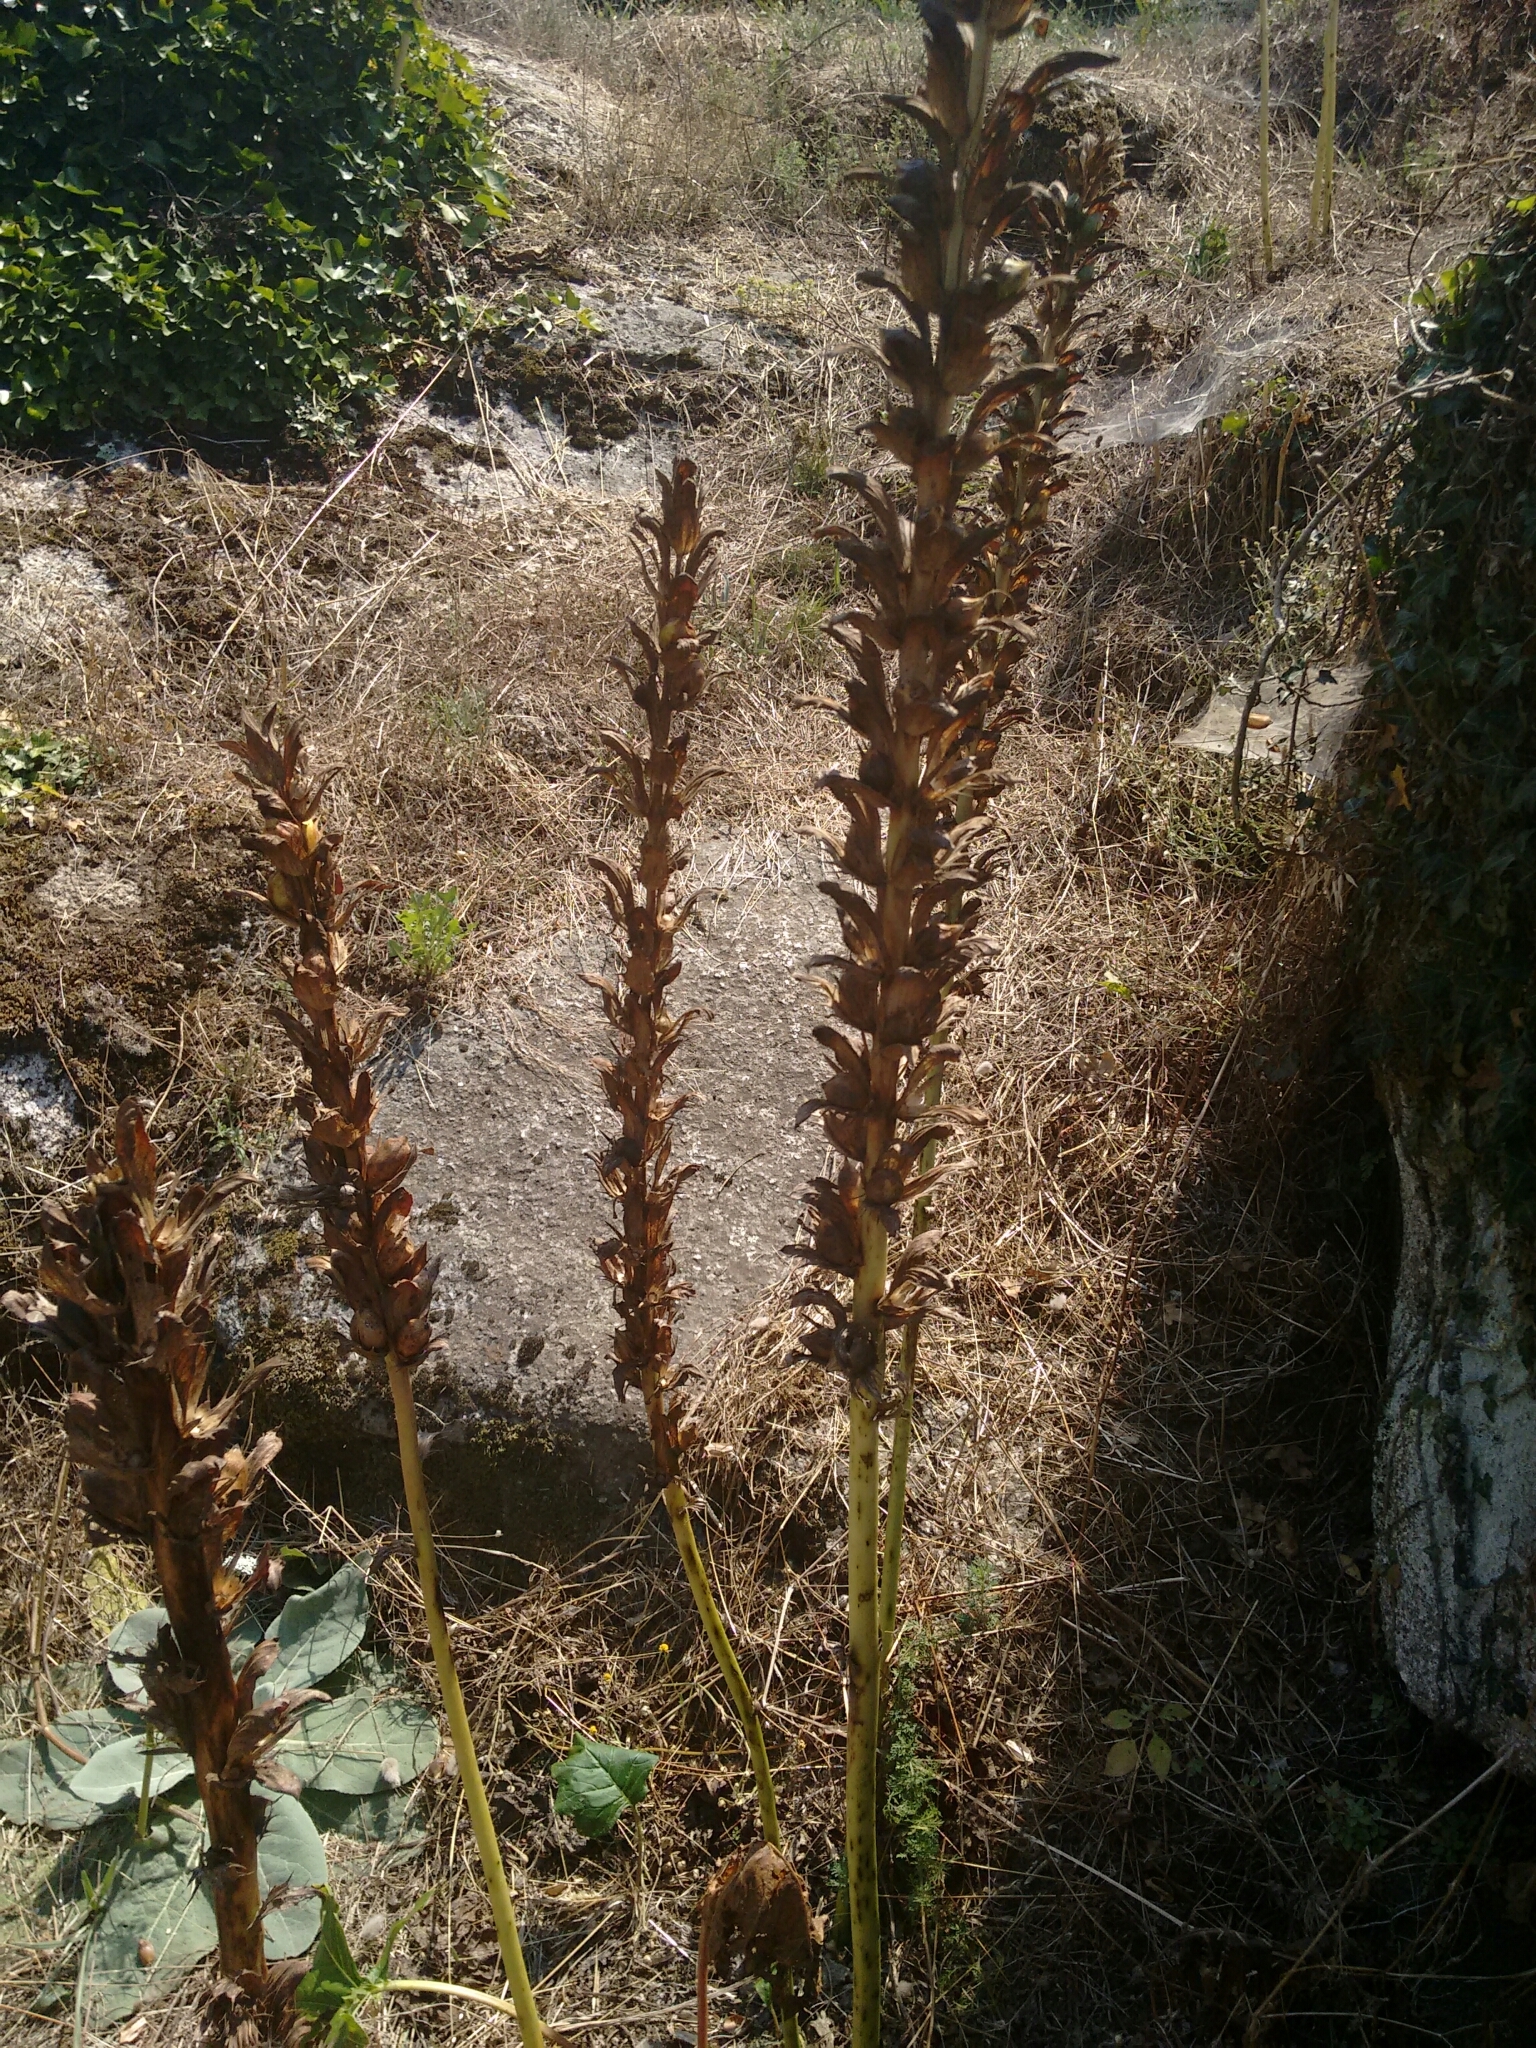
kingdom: Plantae
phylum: Tracheophyta
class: Magnoliopsida
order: Lamiales
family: Acanthaceae
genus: Acanthus
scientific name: Acanthus mollis
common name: Bear's-breech
